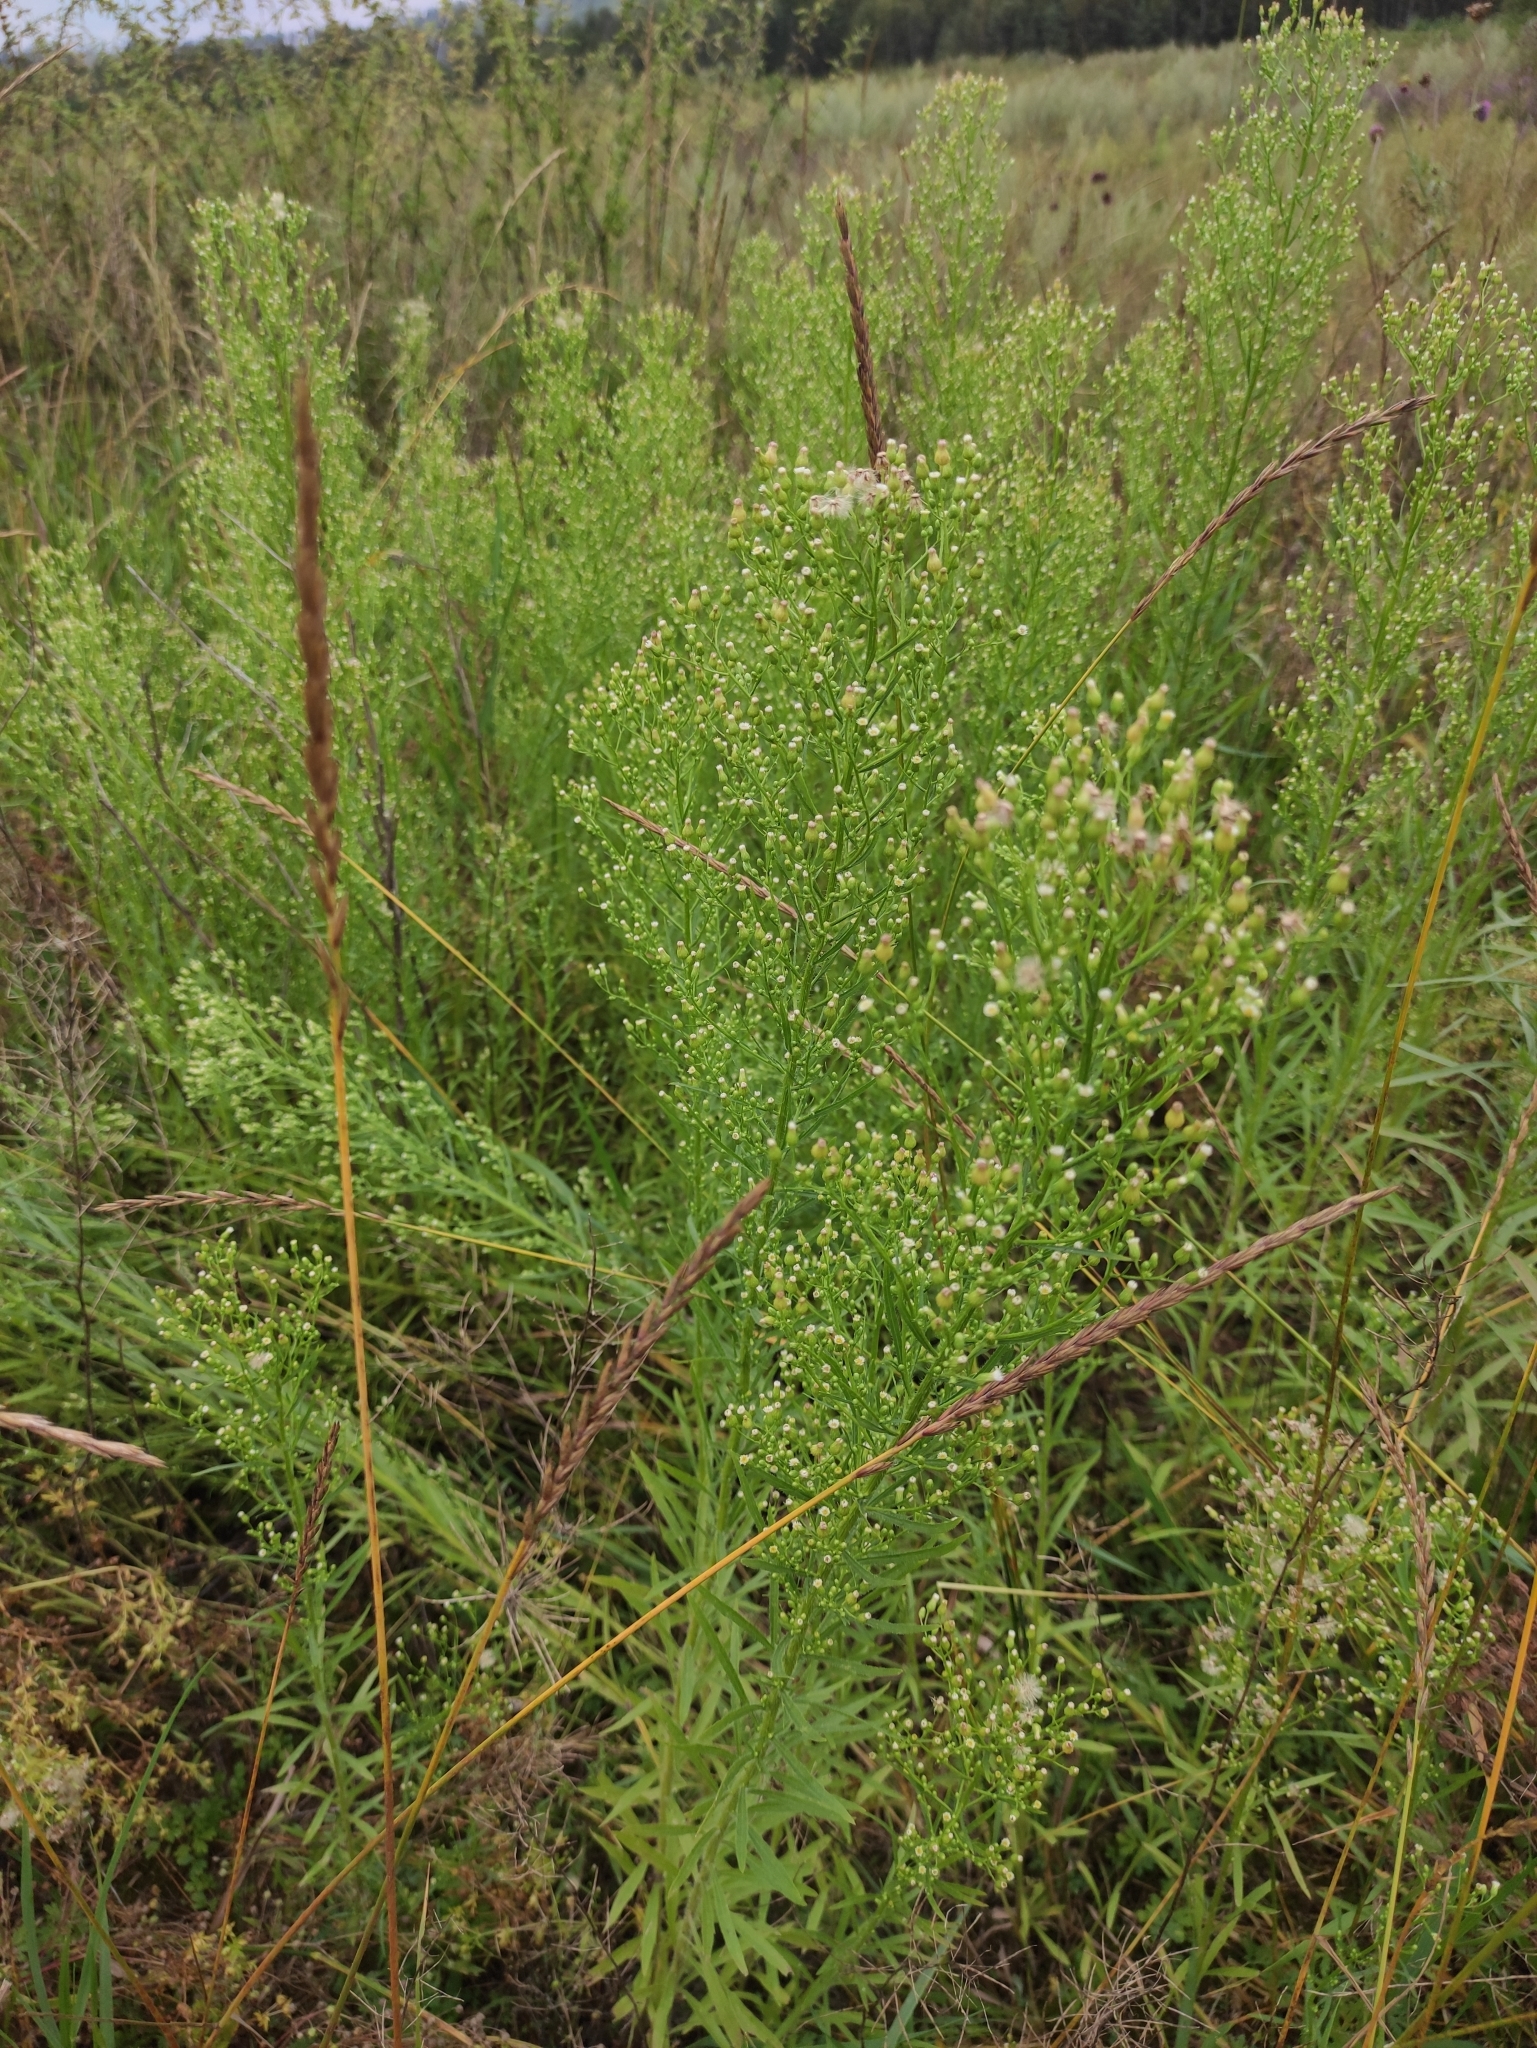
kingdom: Plantae
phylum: Tracheophyta
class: Magnoliopsida
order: Asterales
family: Asteraceae
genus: Erigeron
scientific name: Erigeron canadensis
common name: Canadian fleabane
